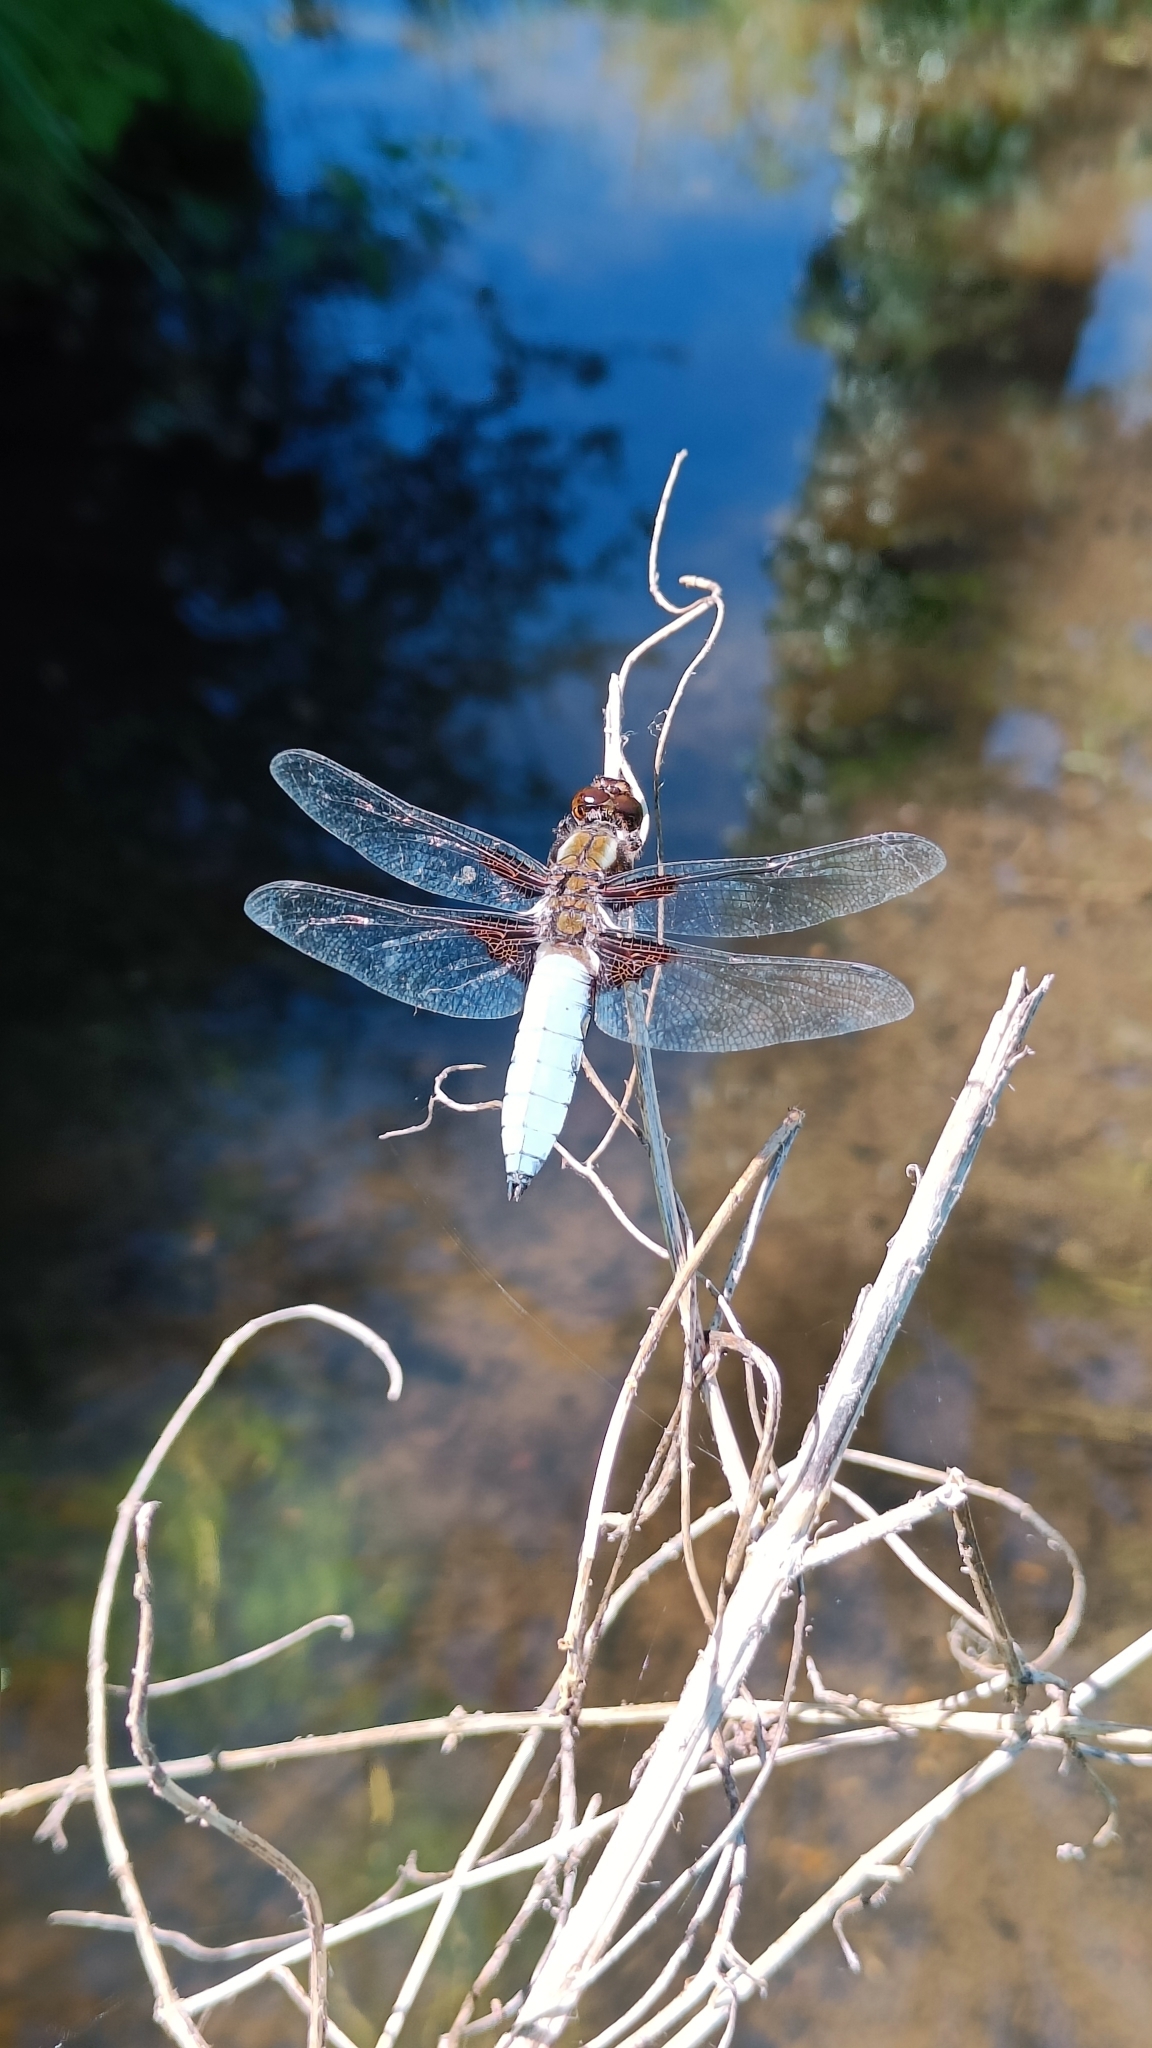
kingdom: Animalia
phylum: Arthropoda
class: Insecta
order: Odonata
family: Libellulidae
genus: Libellula
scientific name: Libellula depressa
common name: Broad-bodied chaser
